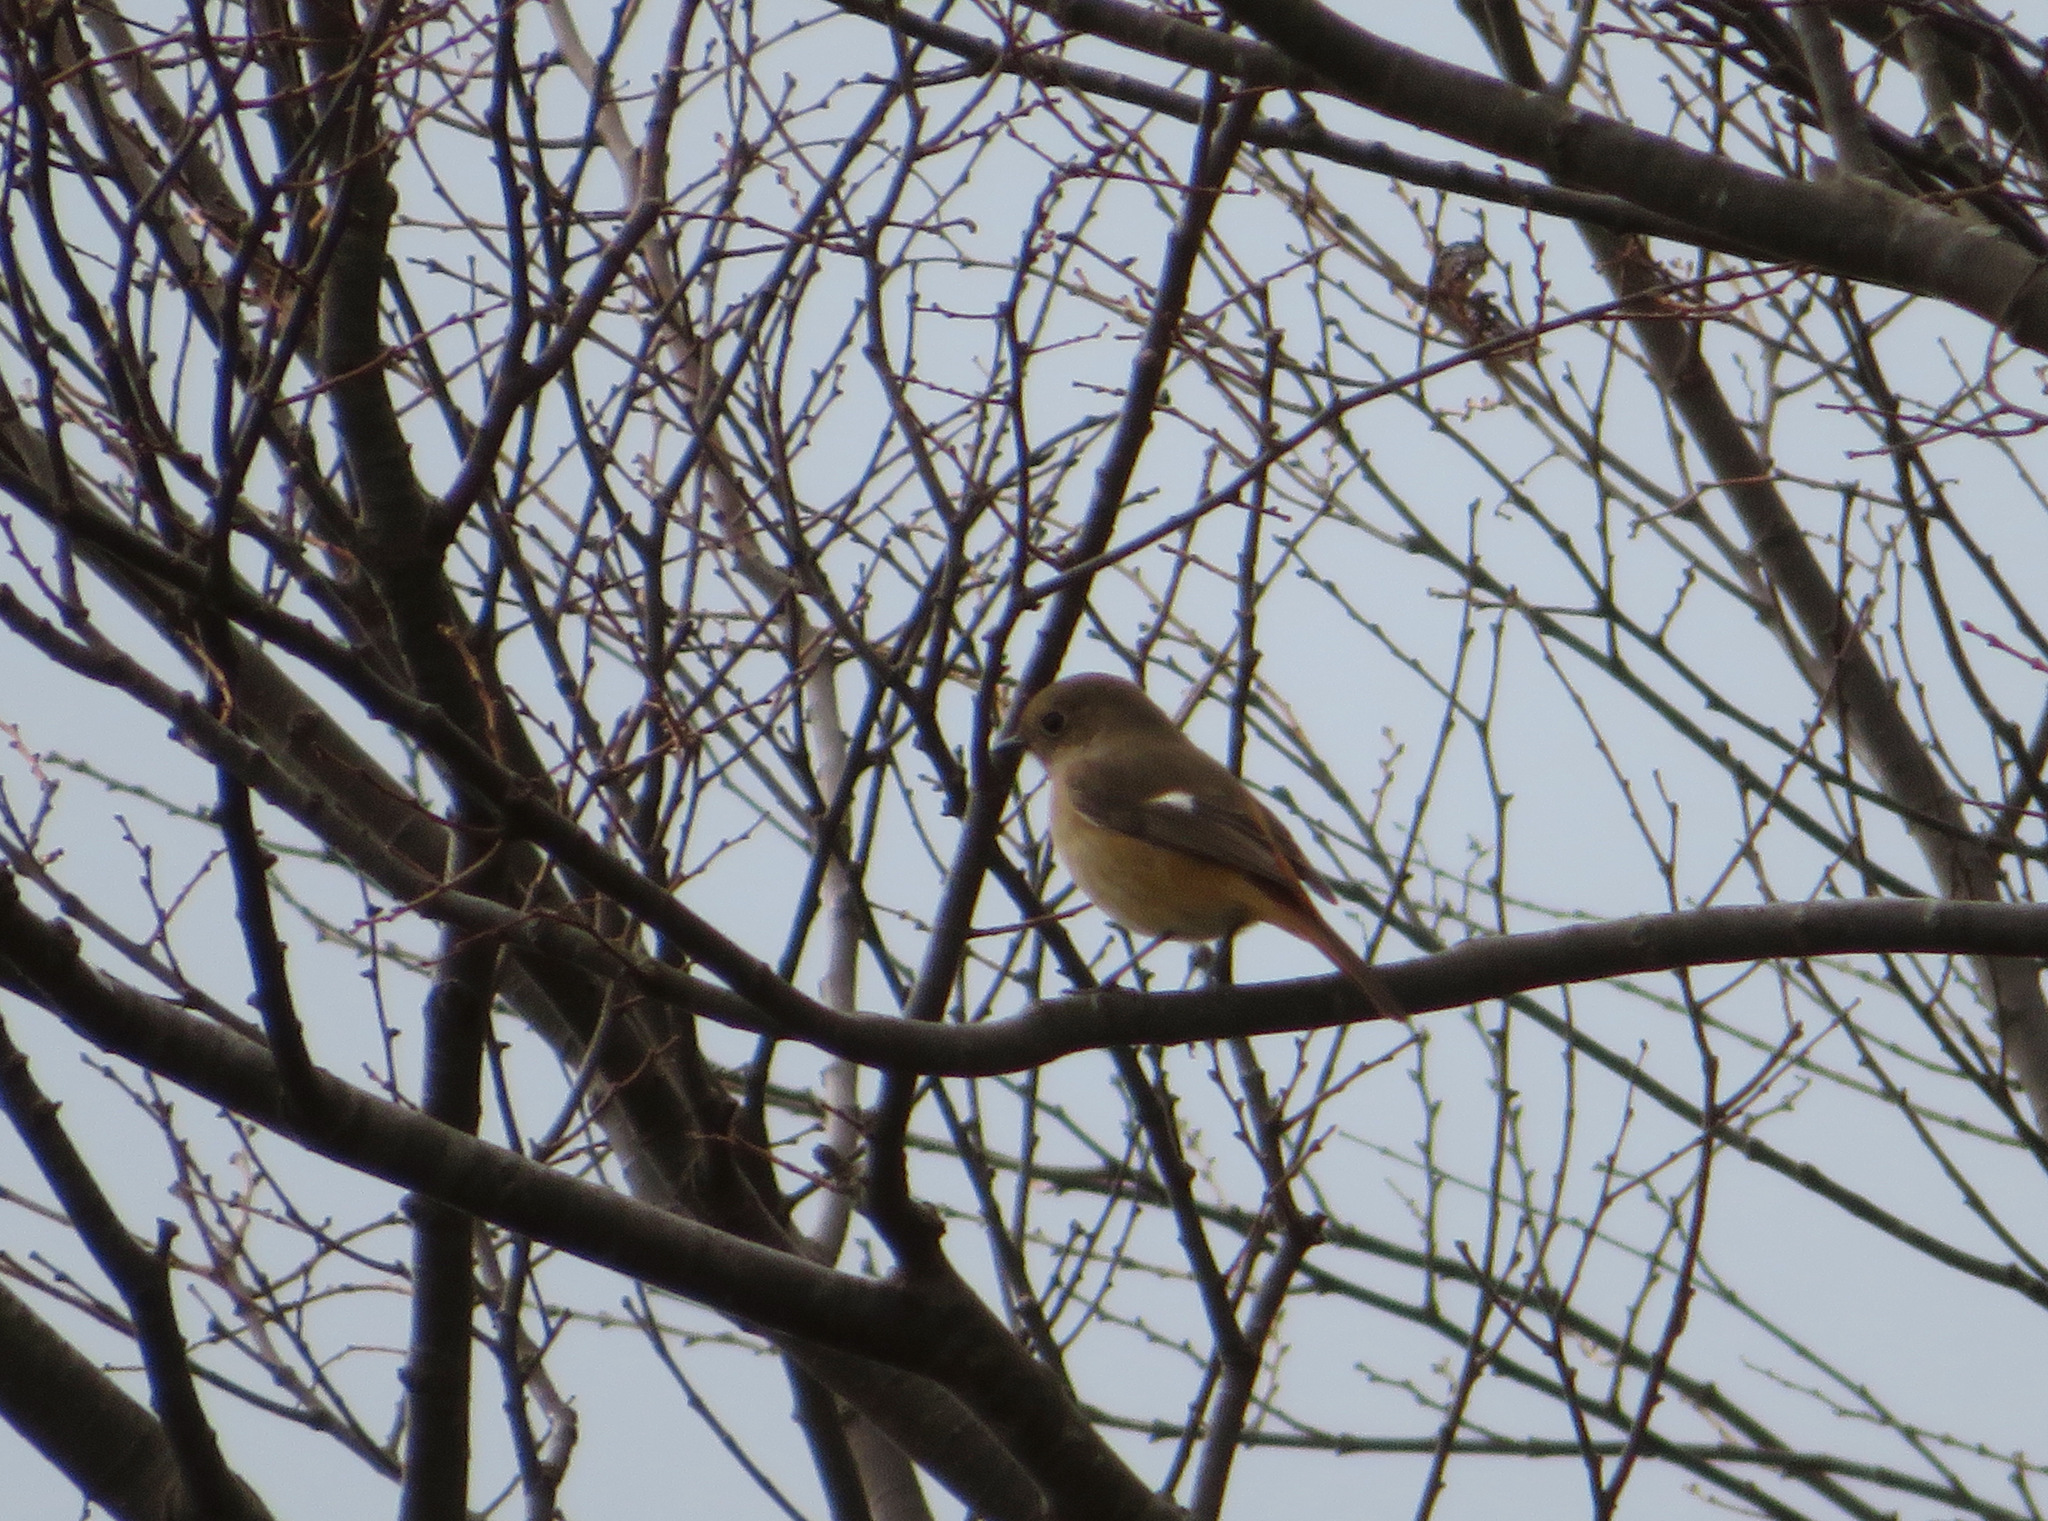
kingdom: Animalia
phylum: Chordata
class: Aves
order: Passeriformes
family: Muscicapidae
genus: Phoenicurus
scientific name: Phoenicurus auroreus
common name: Daurian redstart
